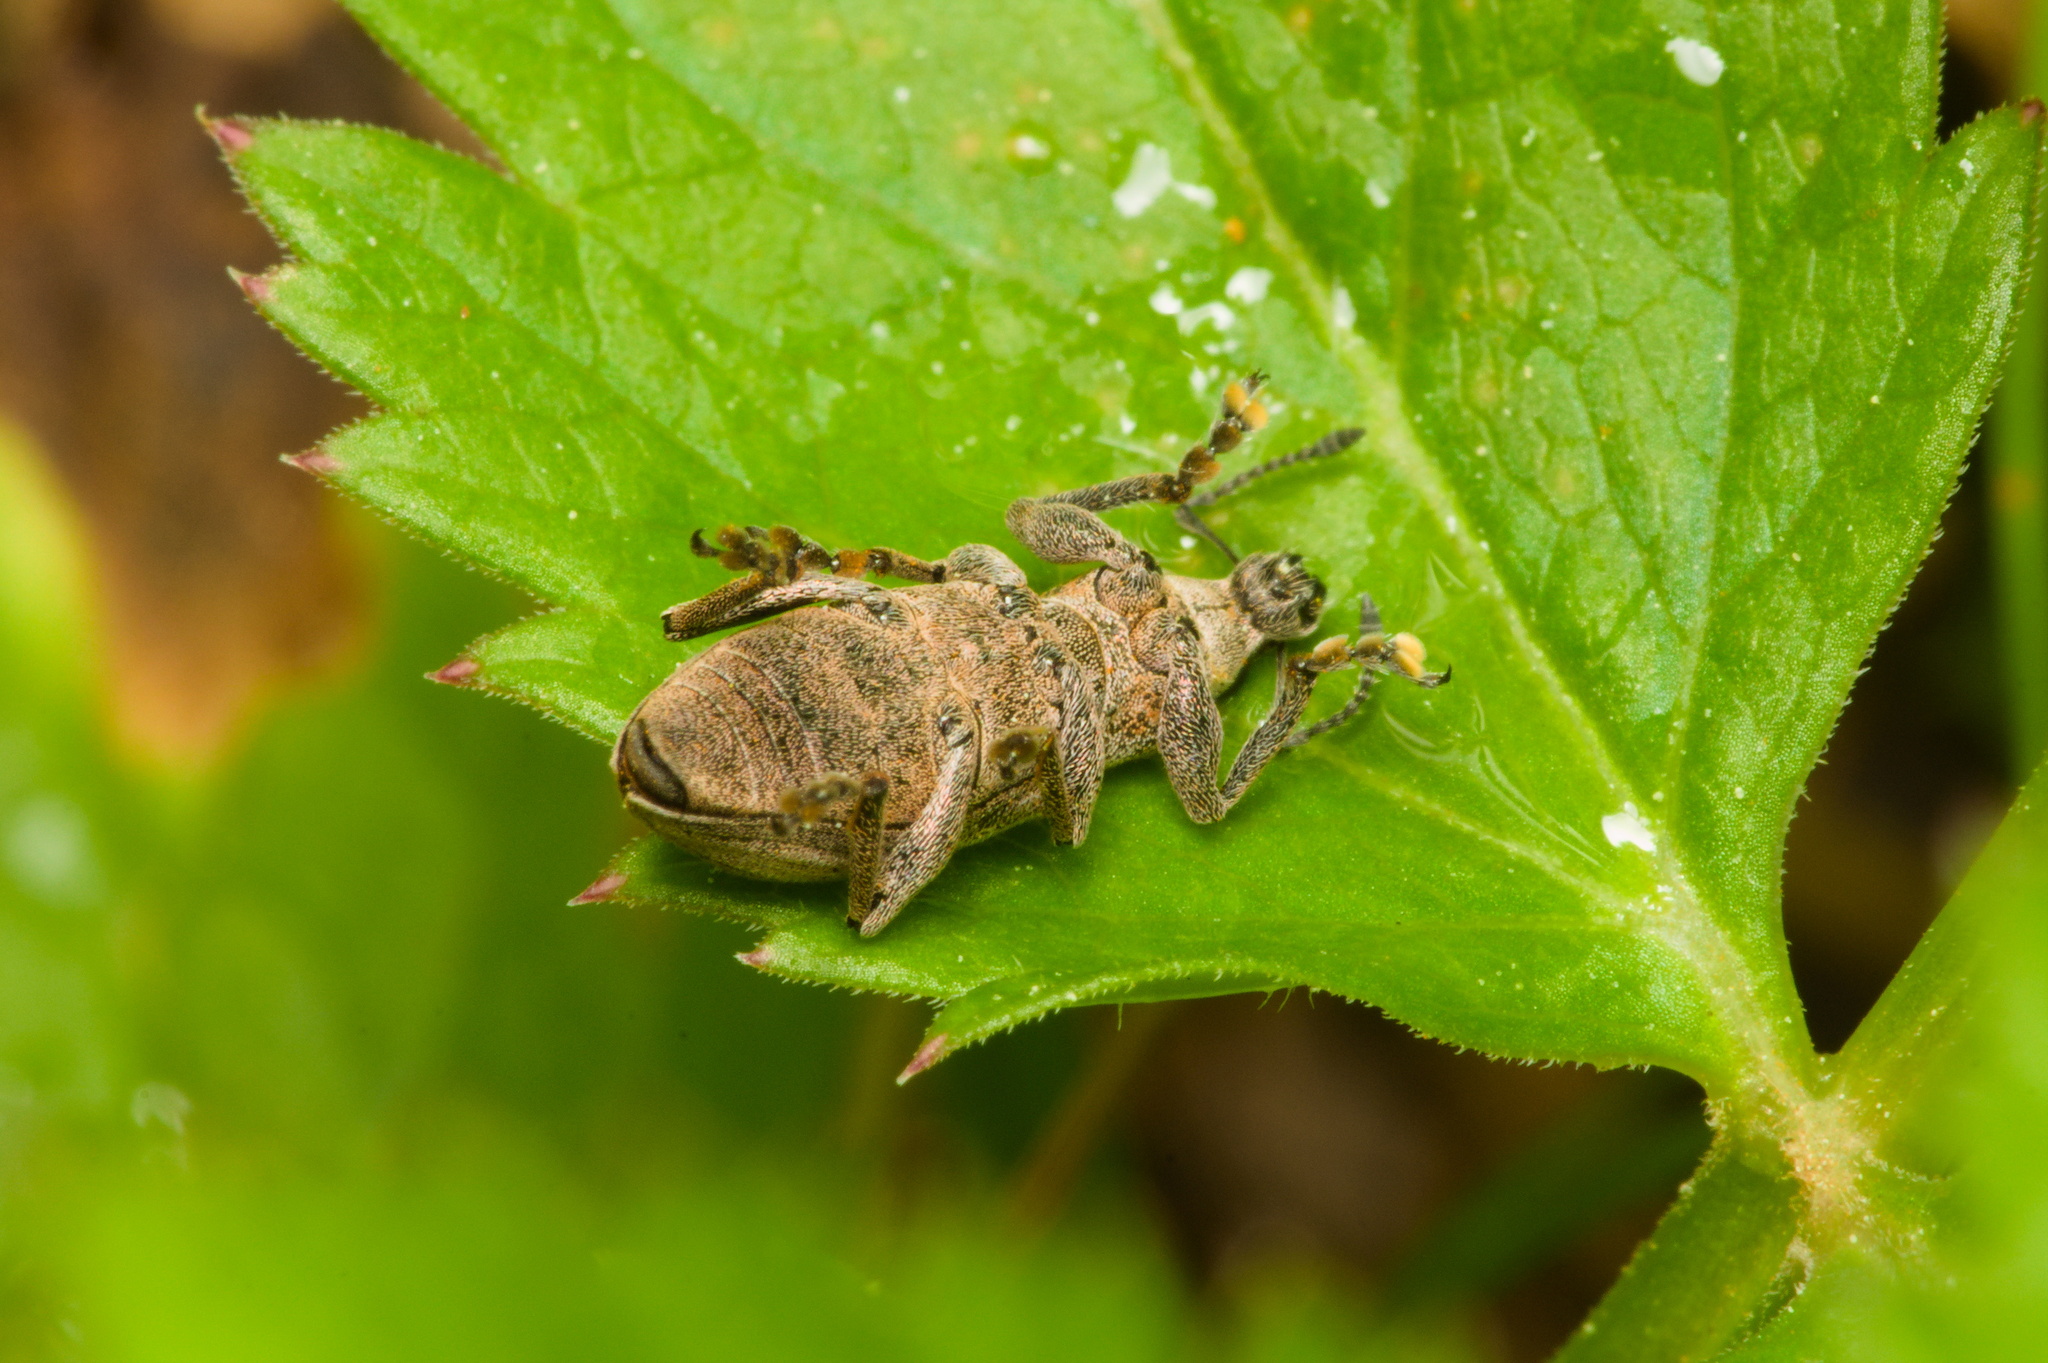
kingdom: Animalia
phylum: Arthropoda
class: Insecta
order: Coleoptera
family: Curculionidae
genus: Tanymecus
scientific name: Tanymecus palliatus
